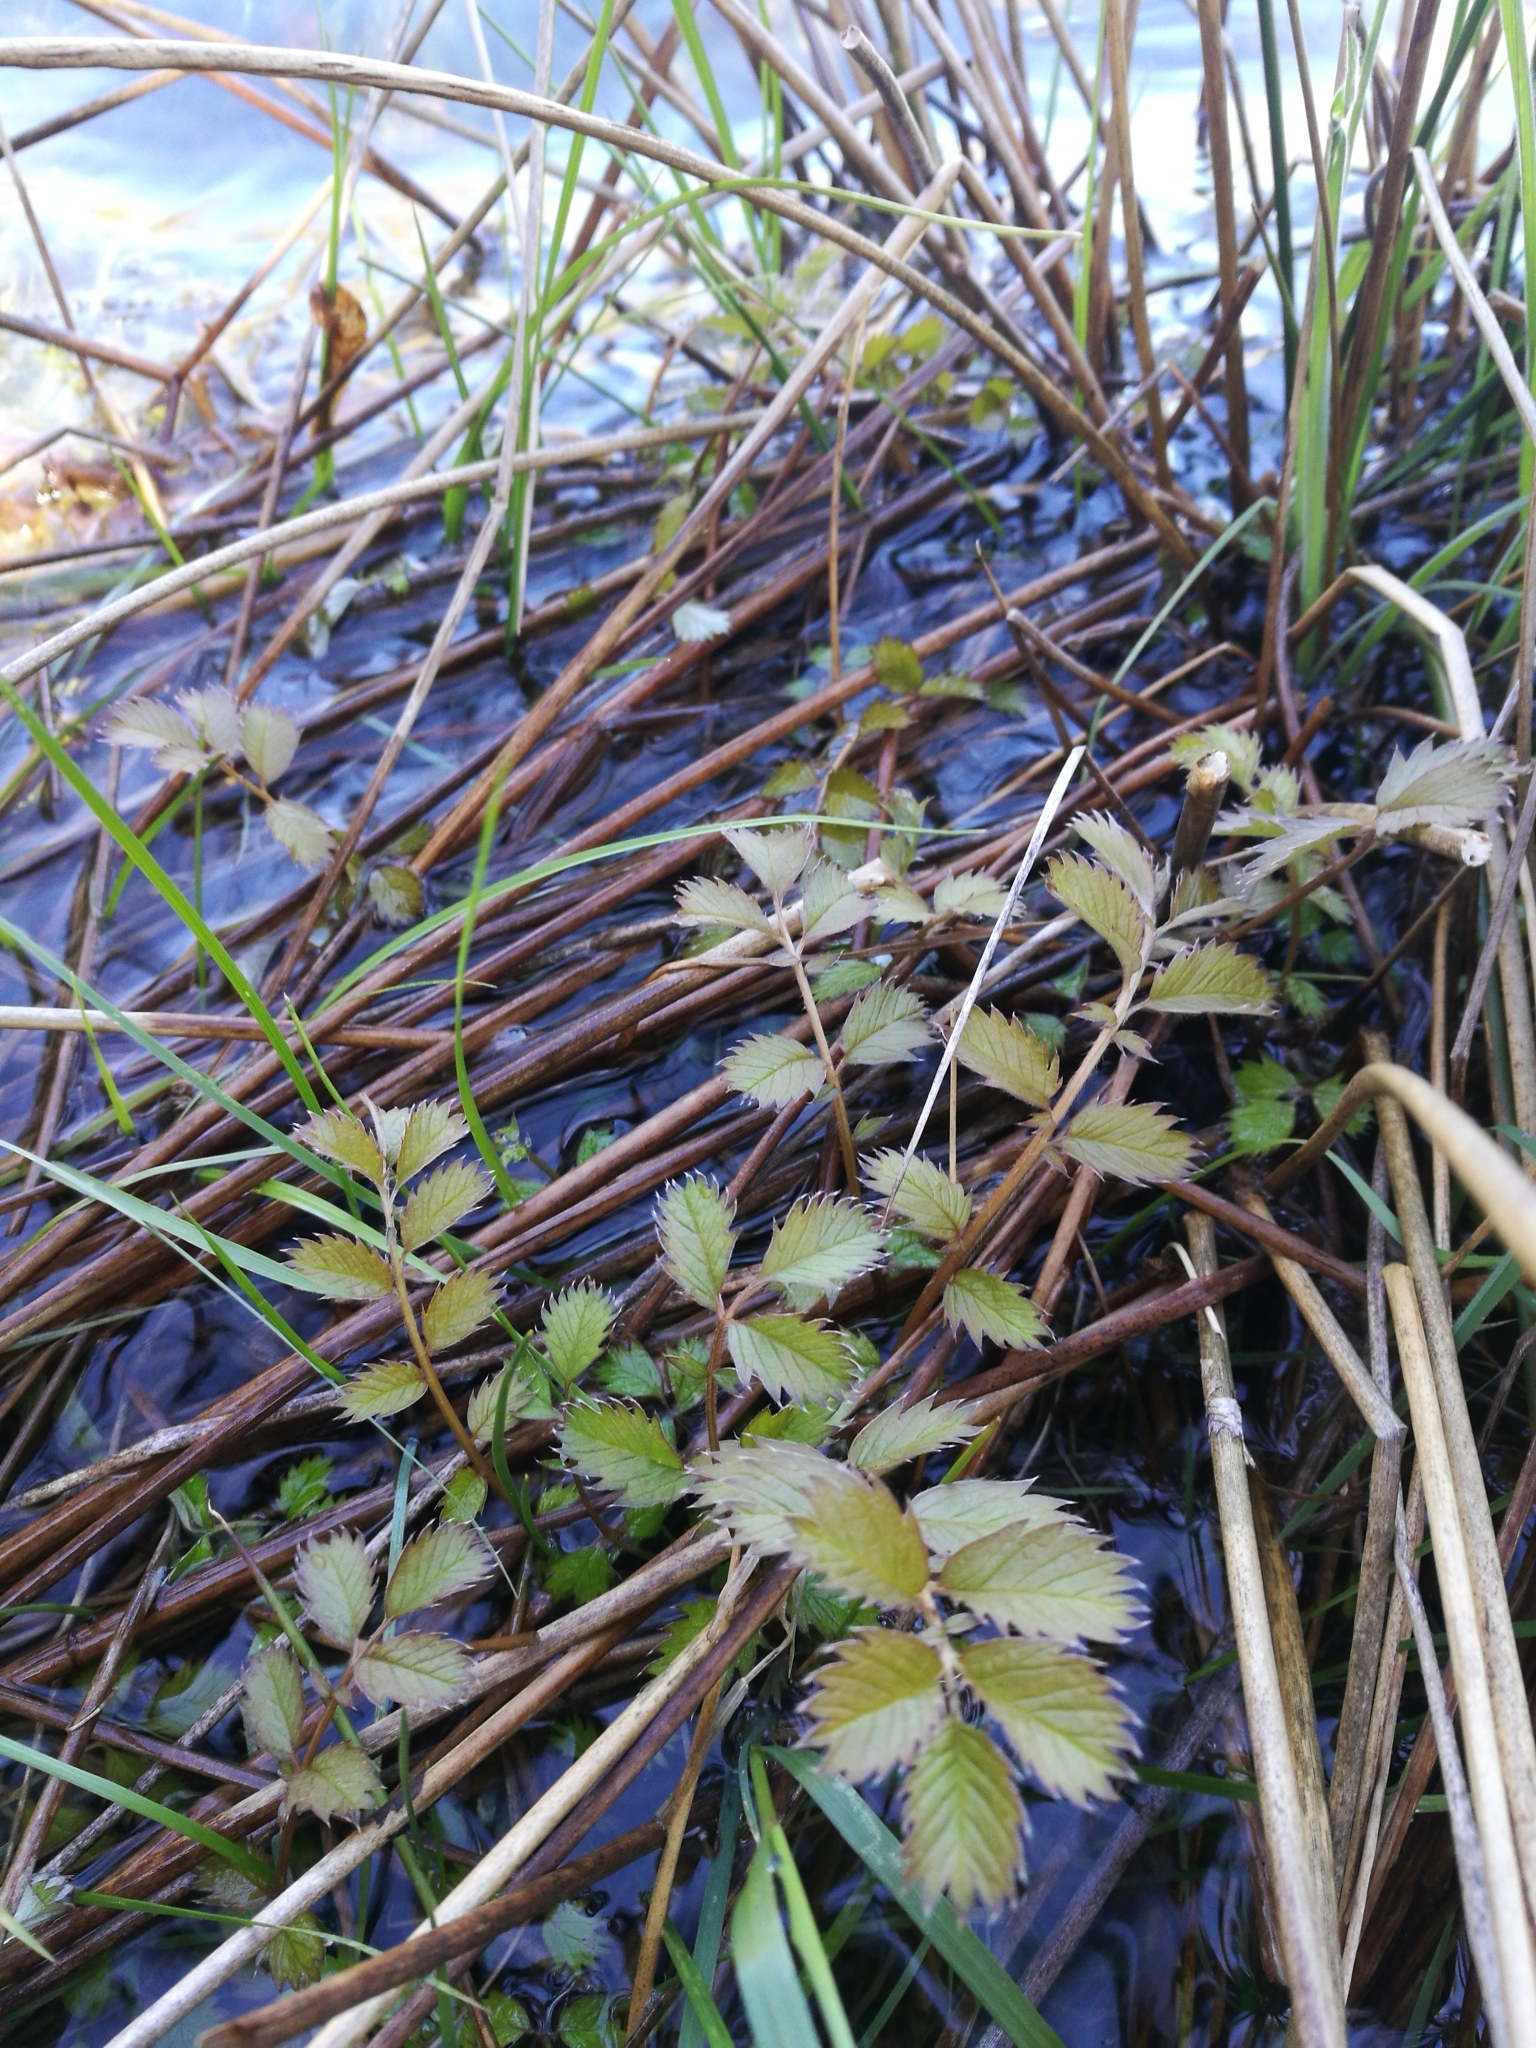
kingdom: Plantae
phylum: Tracheophyta
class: Magnoliopsida
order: Rosales
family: Rosaceae
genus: Argentina
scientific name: Argentina anserinoides
